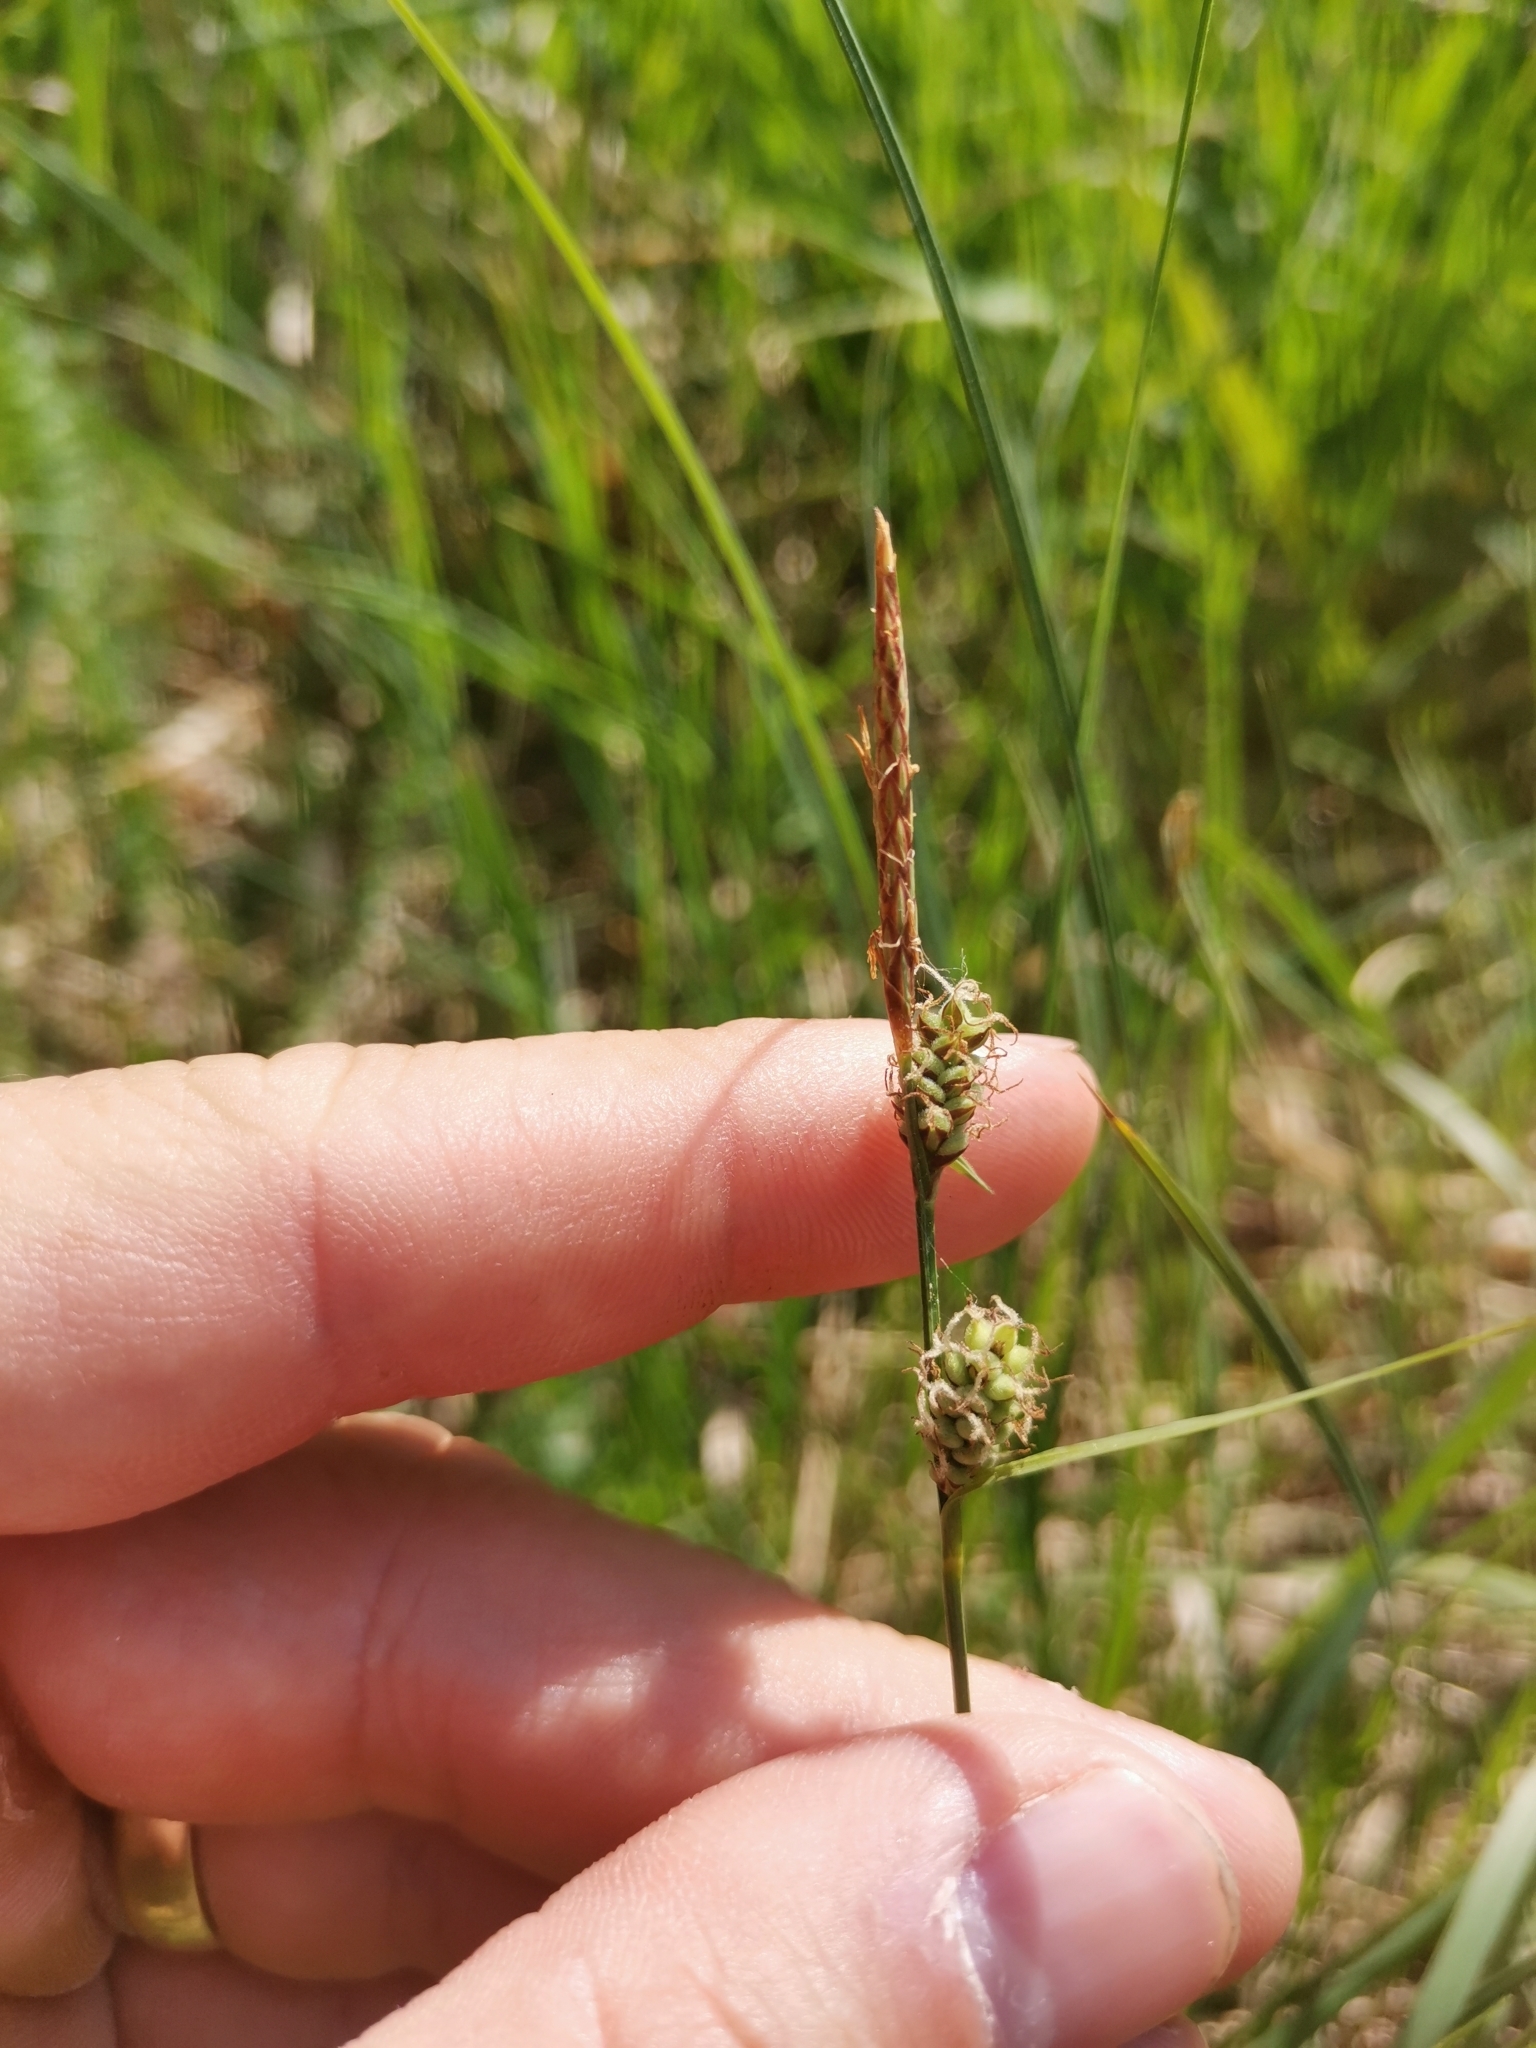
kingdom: Plantae
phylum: Tracheophyta
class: Liliopsida
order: Poales
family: Cyperaceae
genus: Carex
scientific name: Carex tomentosa
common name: Downy-fruited sedge
